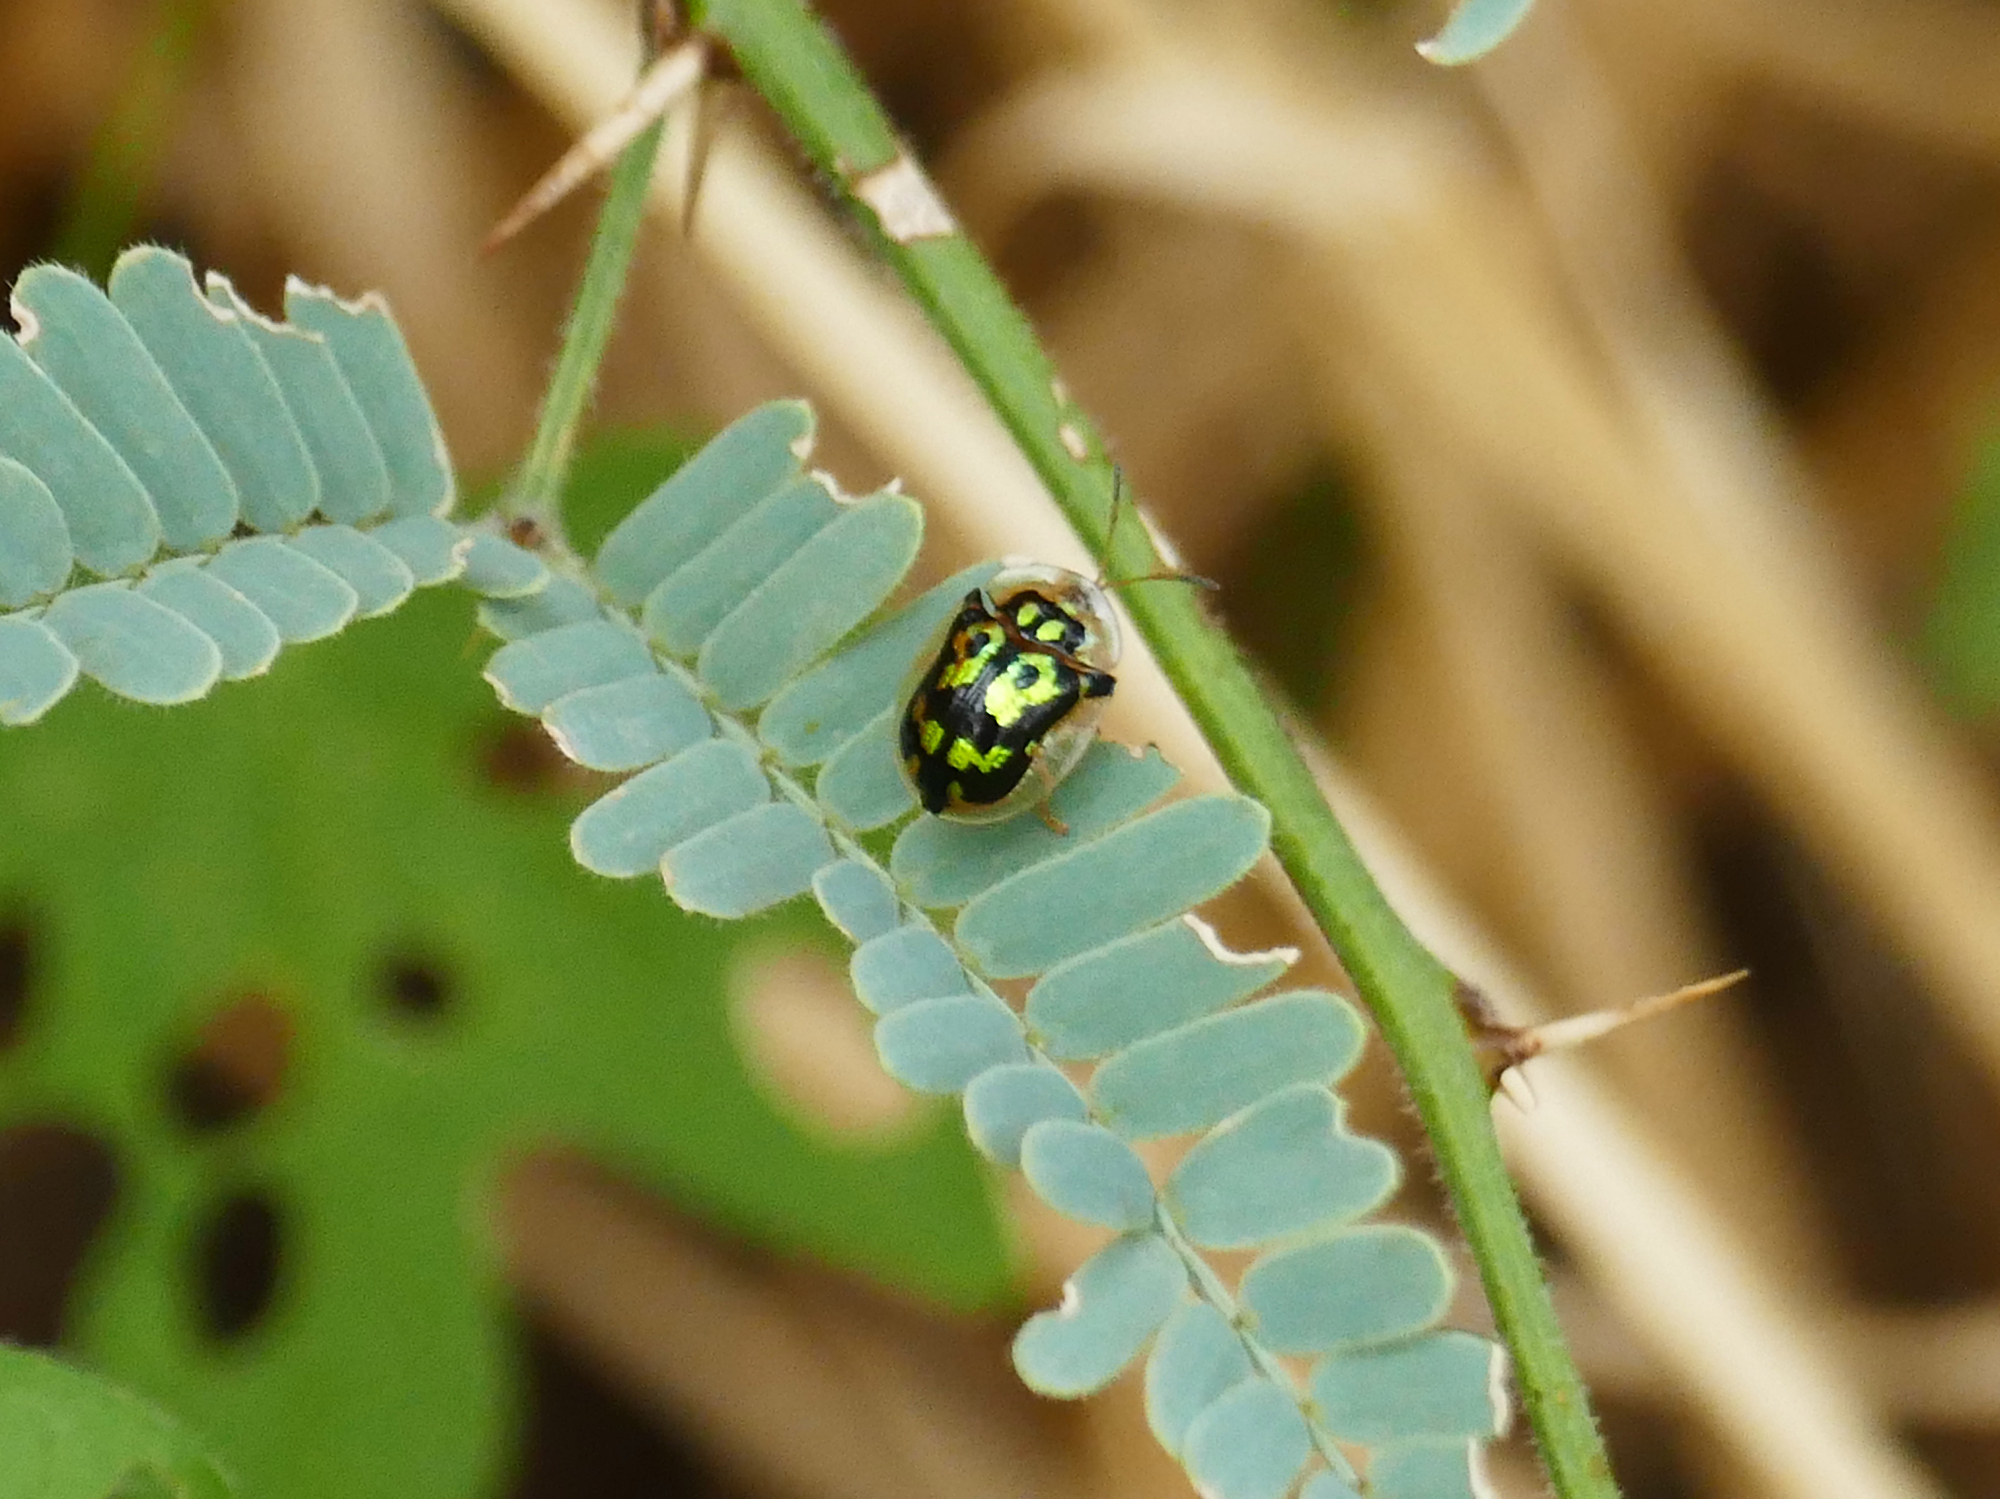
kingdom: Animalia
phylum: Arthropoda
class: Insecta
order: Coleoptera
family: Chrysomelidae
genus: Deloyala
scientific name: Deloyala lecontei
